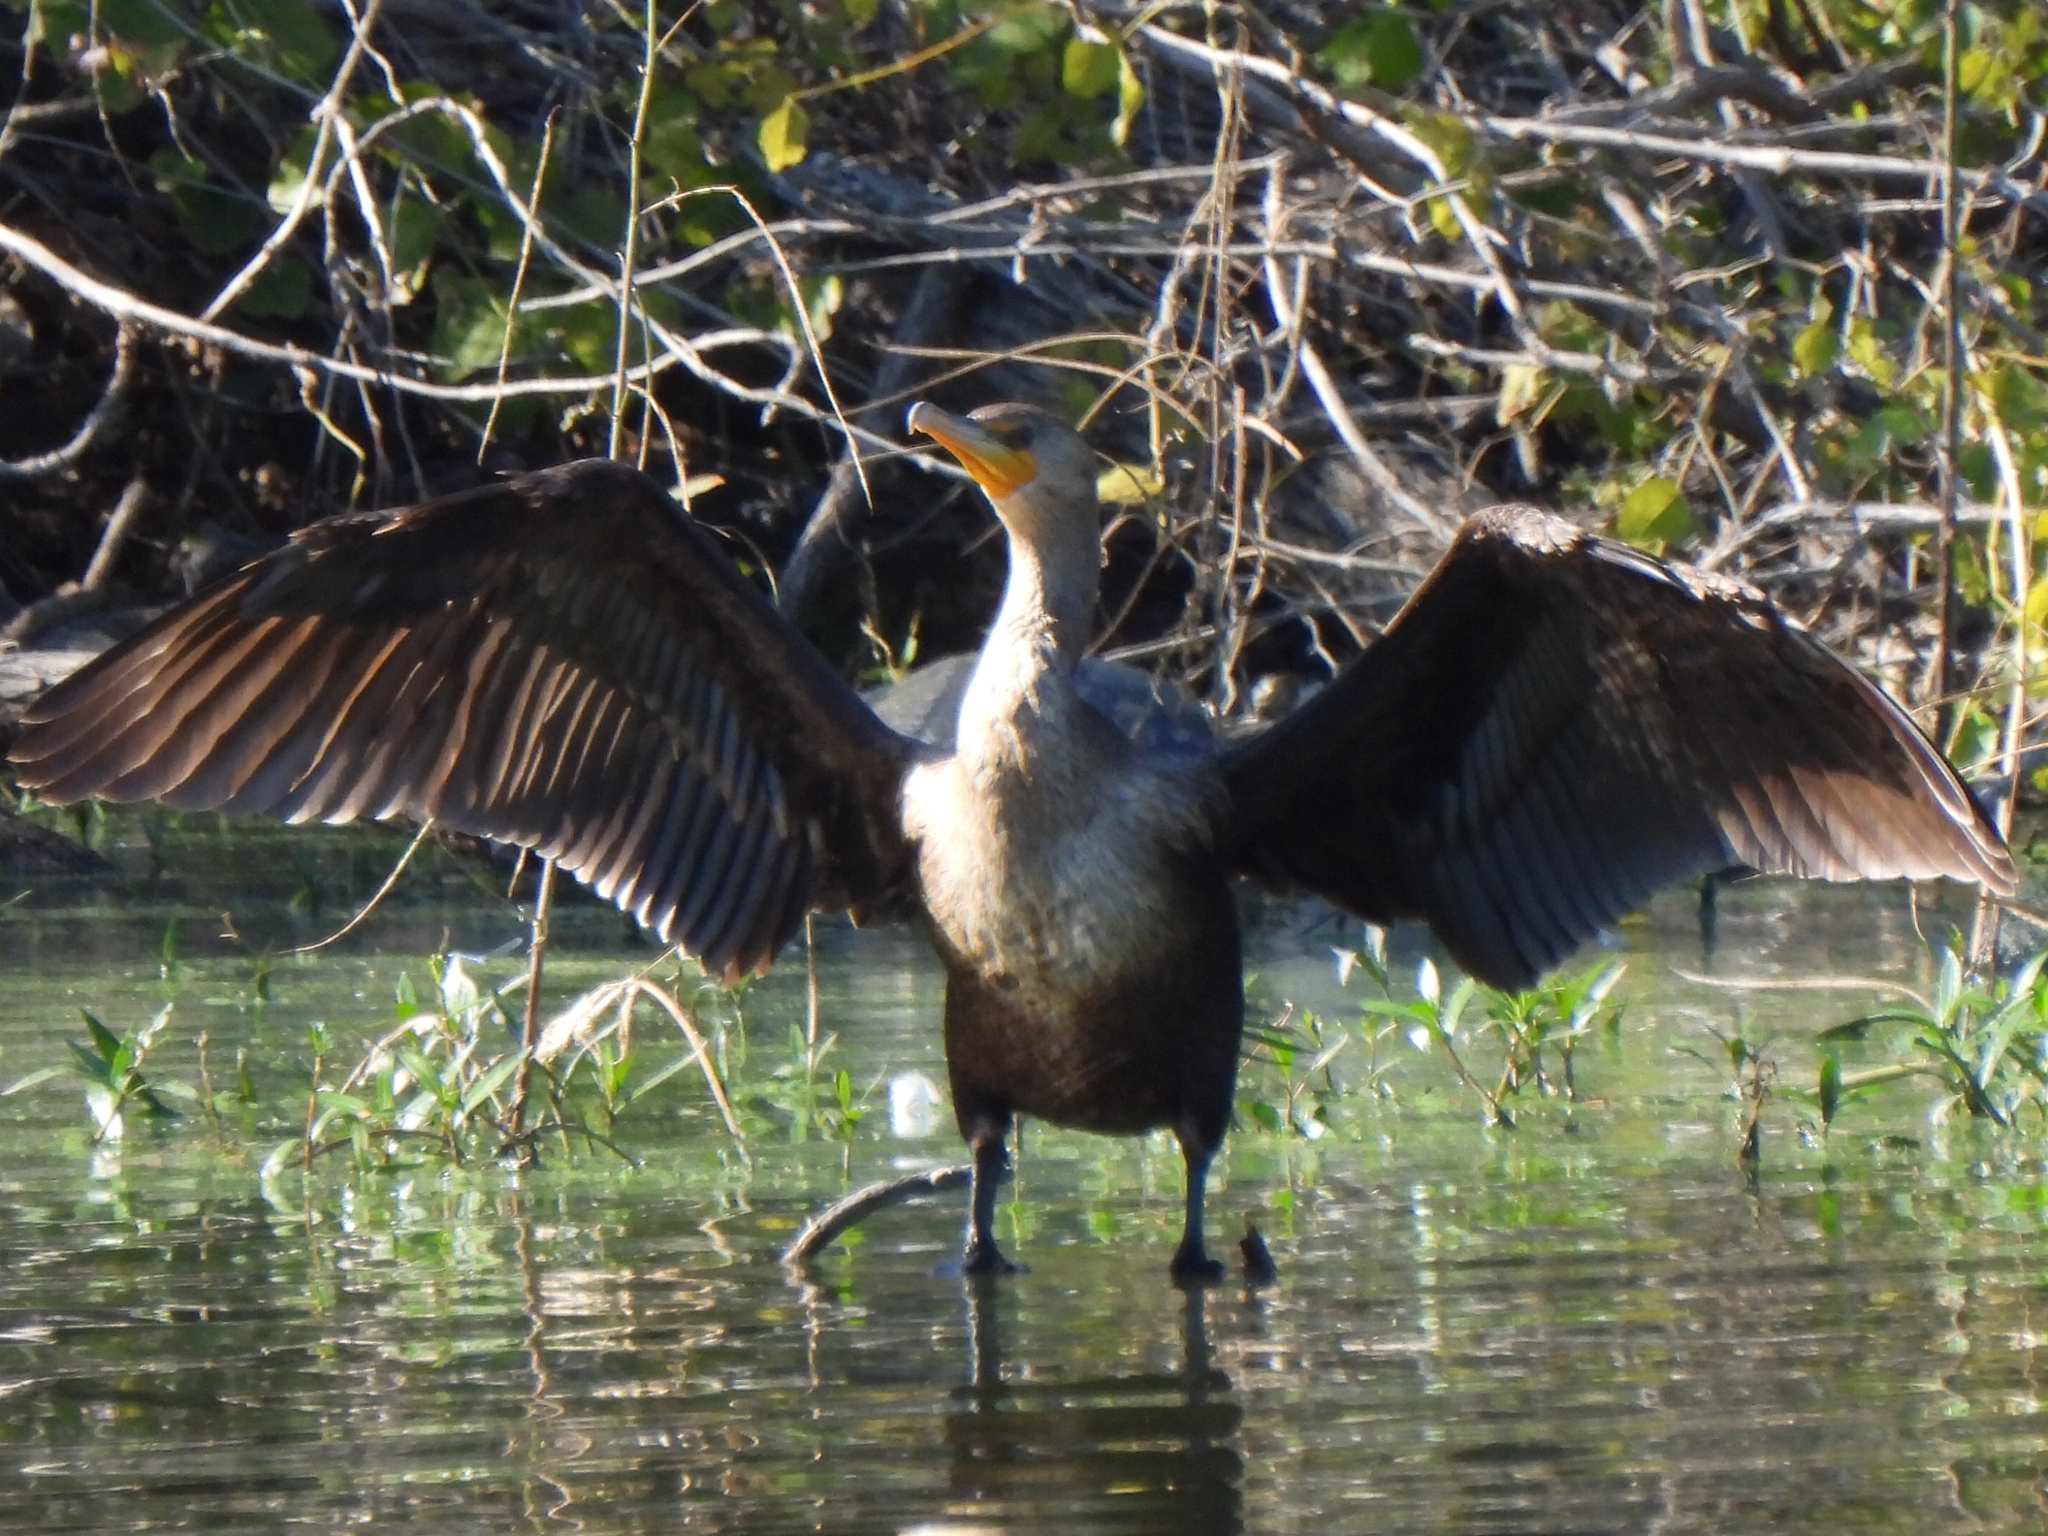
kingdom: Animalia
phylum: Chordata
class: Aves
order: Suliformes
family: Phalacrocoracidae
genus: Phalacrocorax
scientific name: Phalacrocorax auritus
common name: Double-crested cormorant
